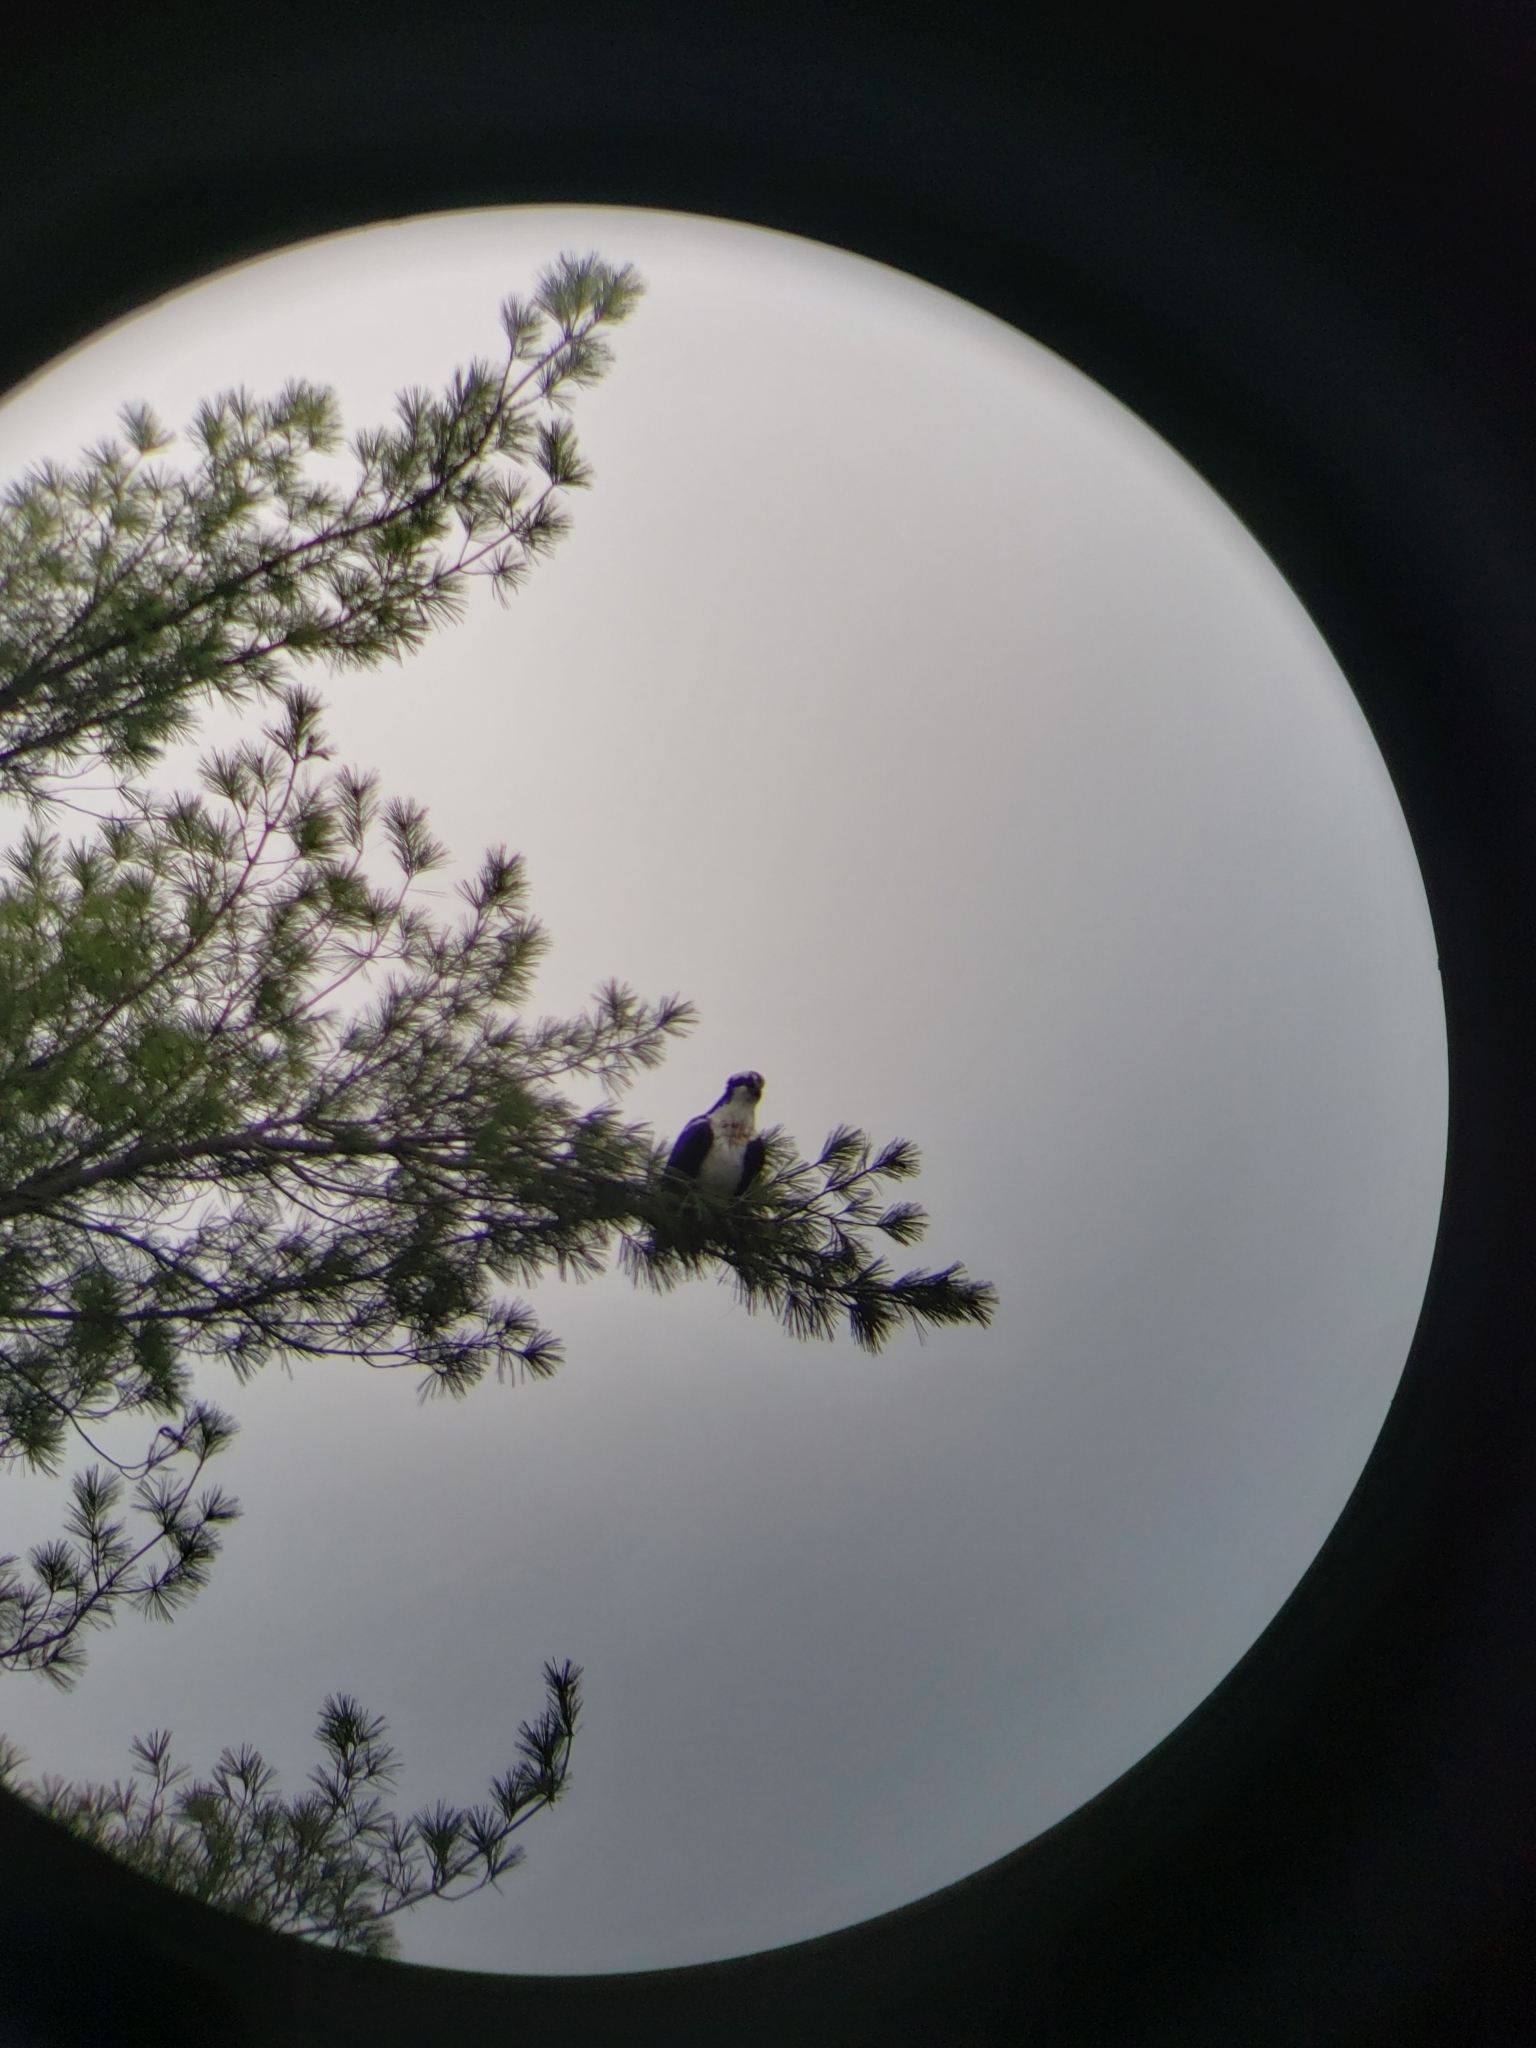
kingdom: Animalia
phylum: Chordata
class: Aves
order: Accipitriformes
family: Pandionidae
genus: Pandion
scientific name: Pandion haliaetus
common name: Osprey
